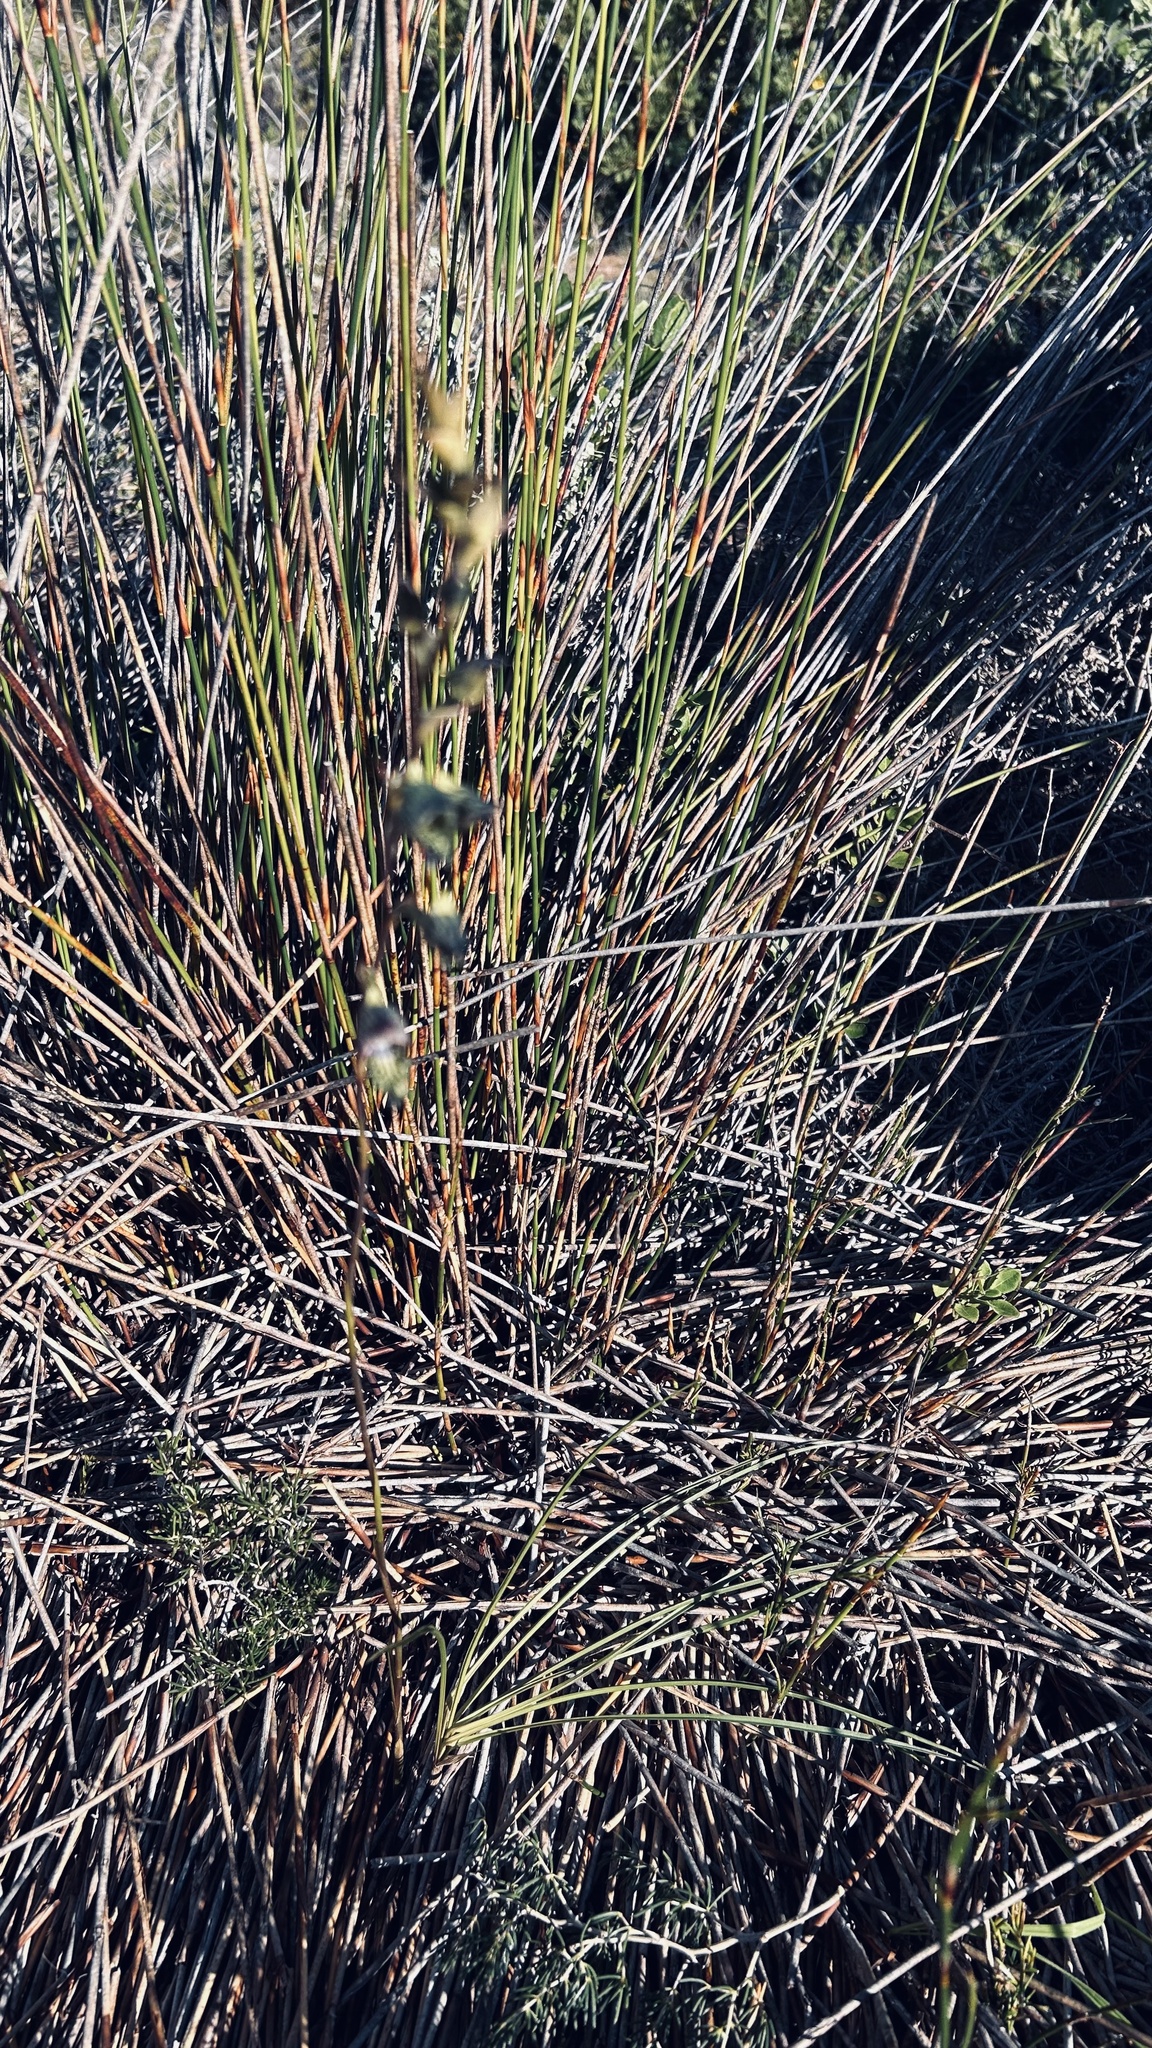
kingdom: Plantae
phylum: Tracheophyta
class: Liliopsida
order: Asparagales
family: Orchidaceae
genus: Disa
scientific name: Disa lugens
